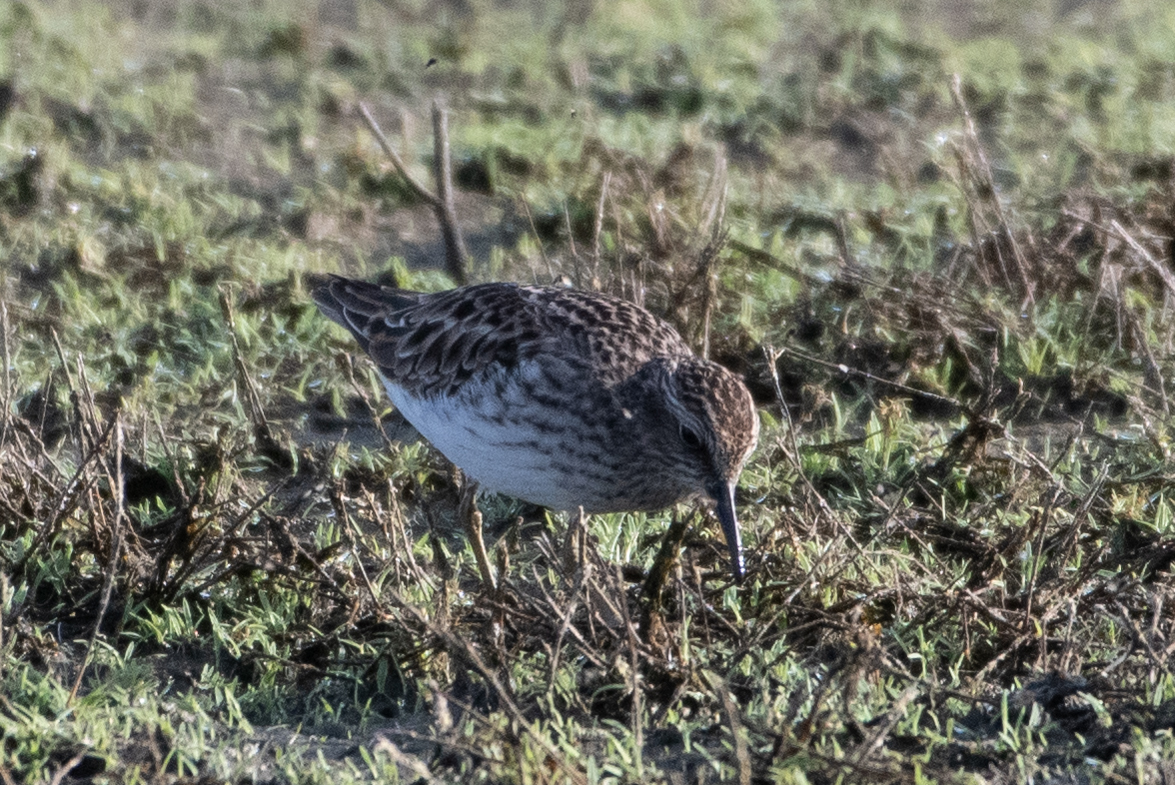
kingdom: Animalia
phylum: Chordata
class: Aves
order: Charadriiformes
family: Scolopacidae
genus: Calidris
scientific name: Calidris minutilla
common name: Least sandpiper
